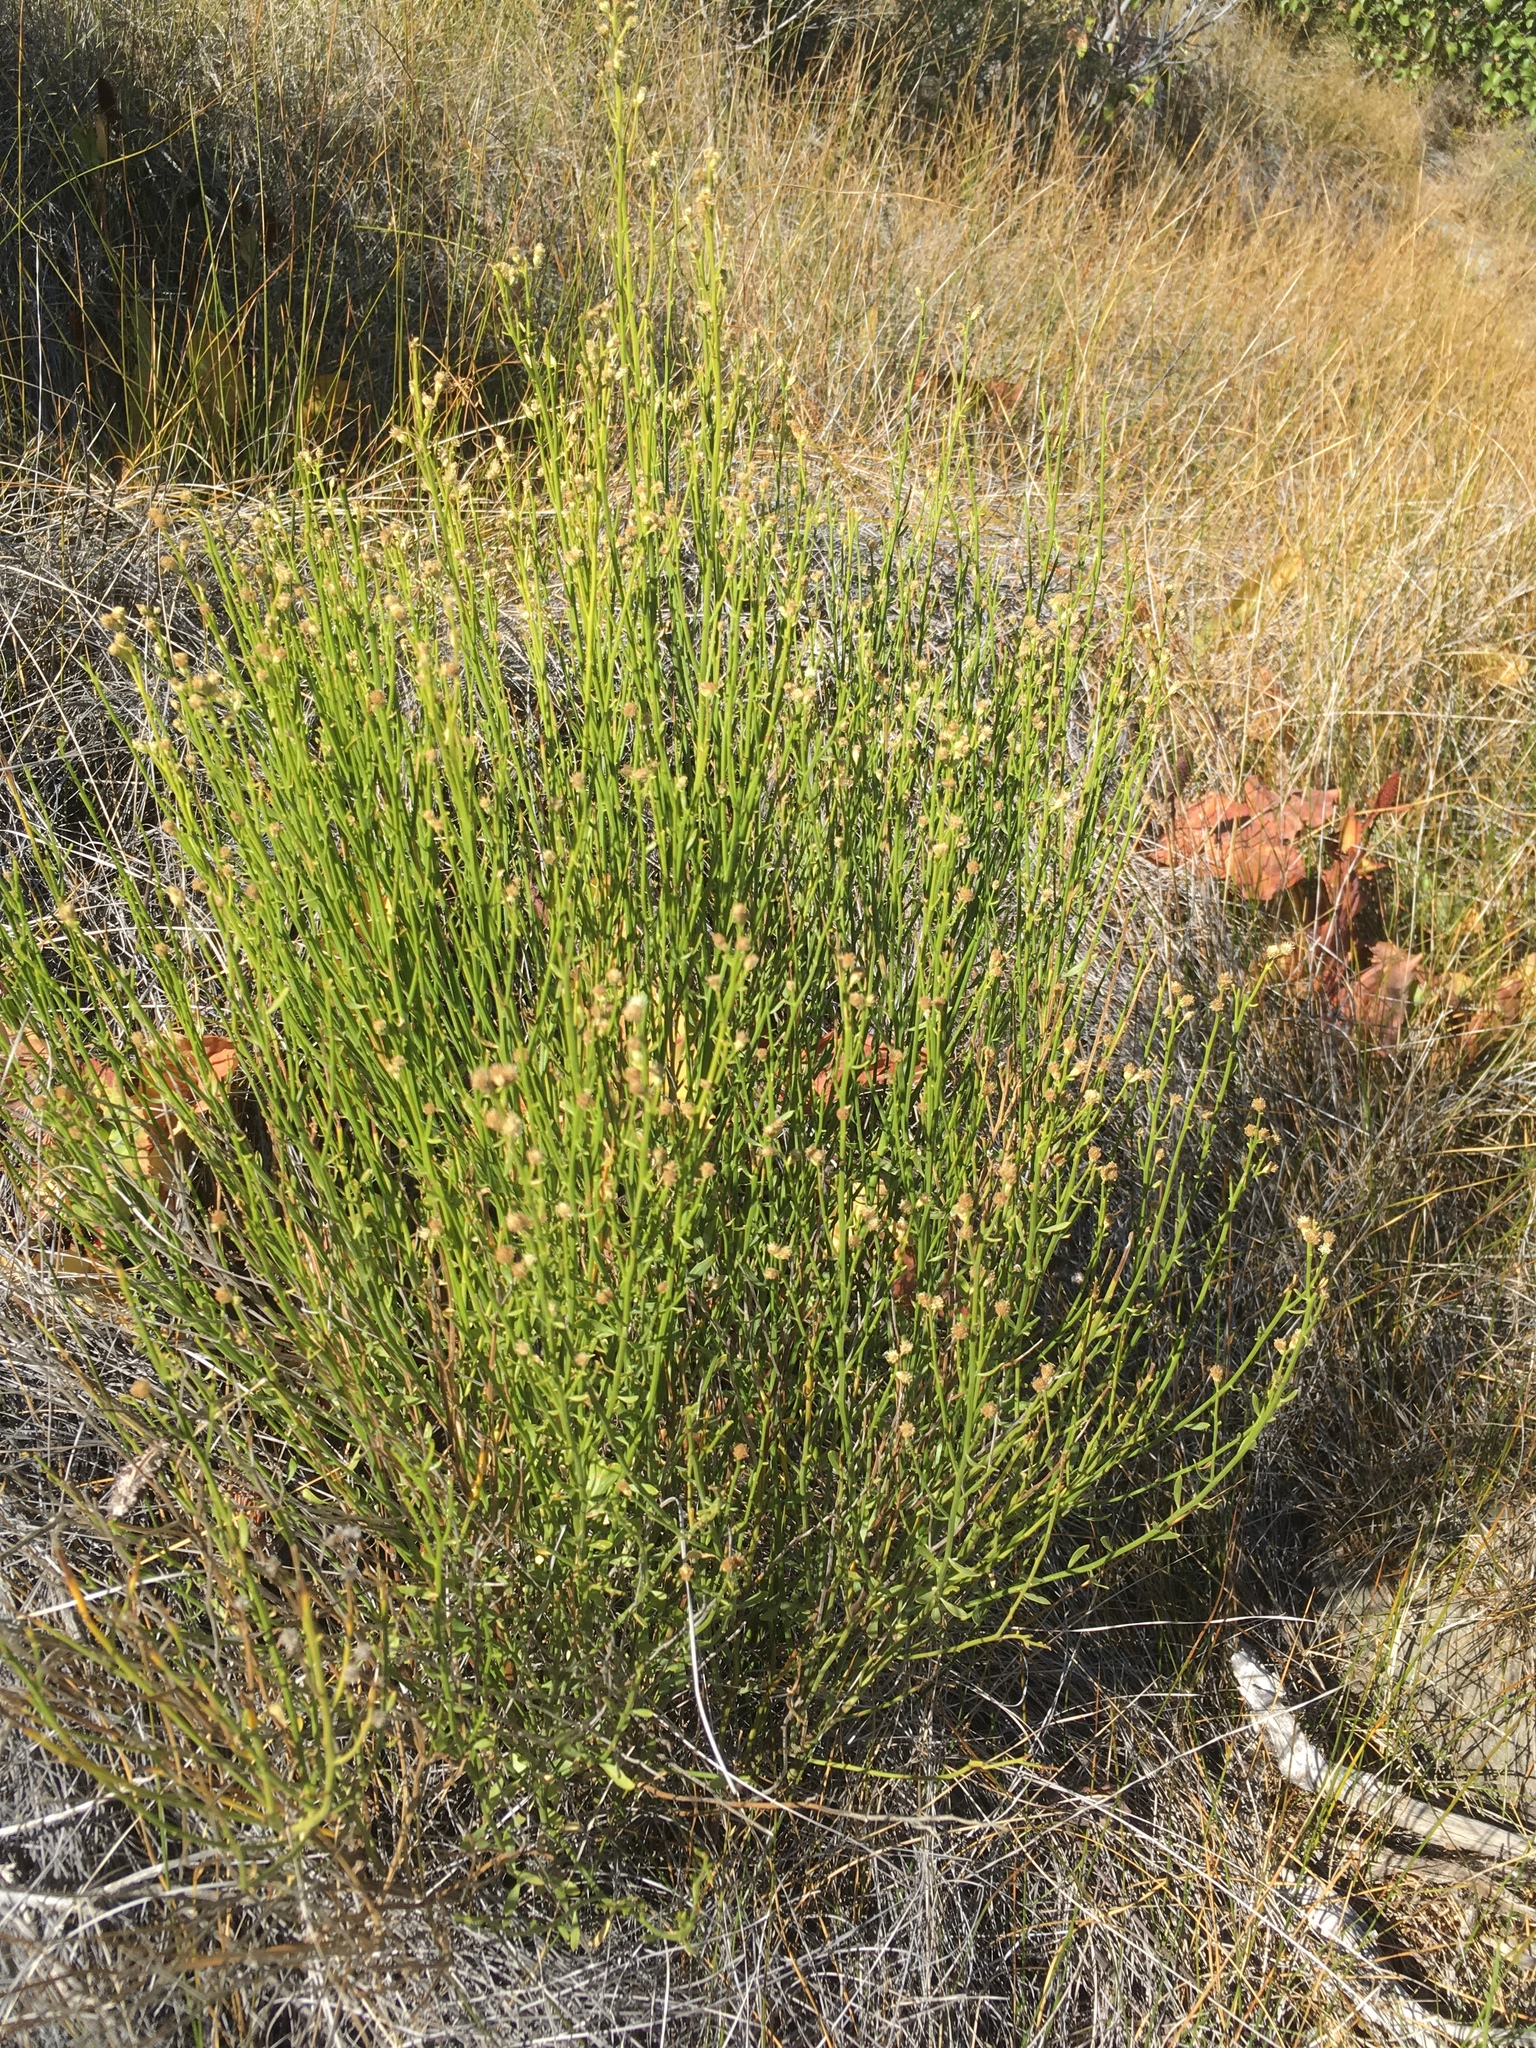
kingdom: Plantae
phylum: Tracheophyta
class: Magnoliopsida
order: Asterales
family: Asteraceae
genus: Baccharis
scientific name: Baccharis sergiloides
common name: Desert baccharis
